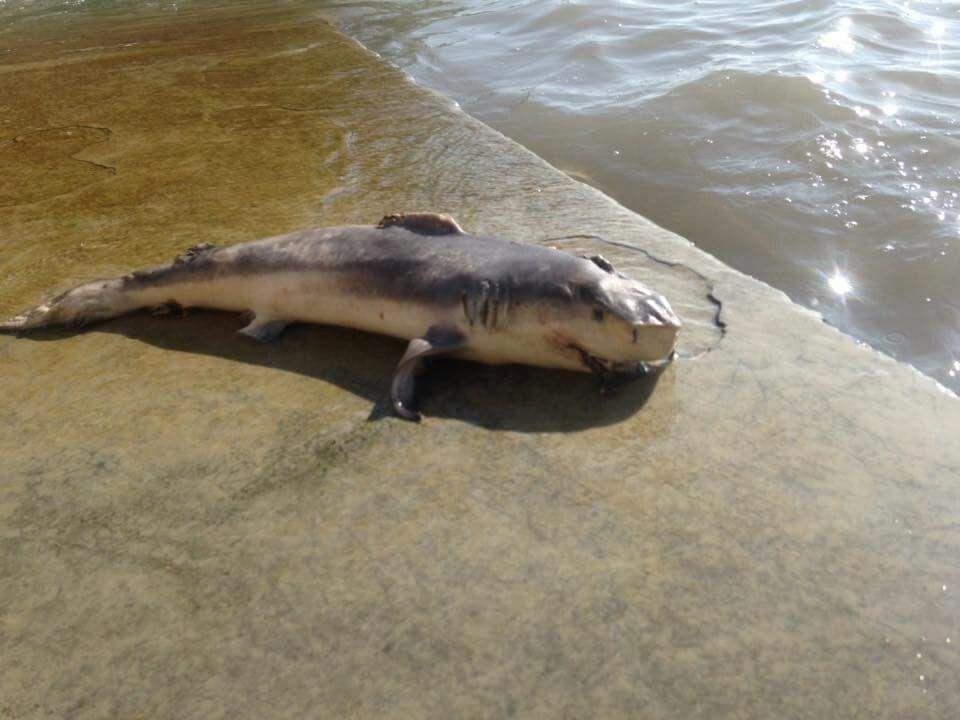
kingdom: Animalia
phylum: Chordata
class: Elasmobranchii
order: Carcharhiniformes
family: Carcharhinidae
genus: Carcharhinus
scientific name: Carcharhinus leucas
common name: Bull shark
